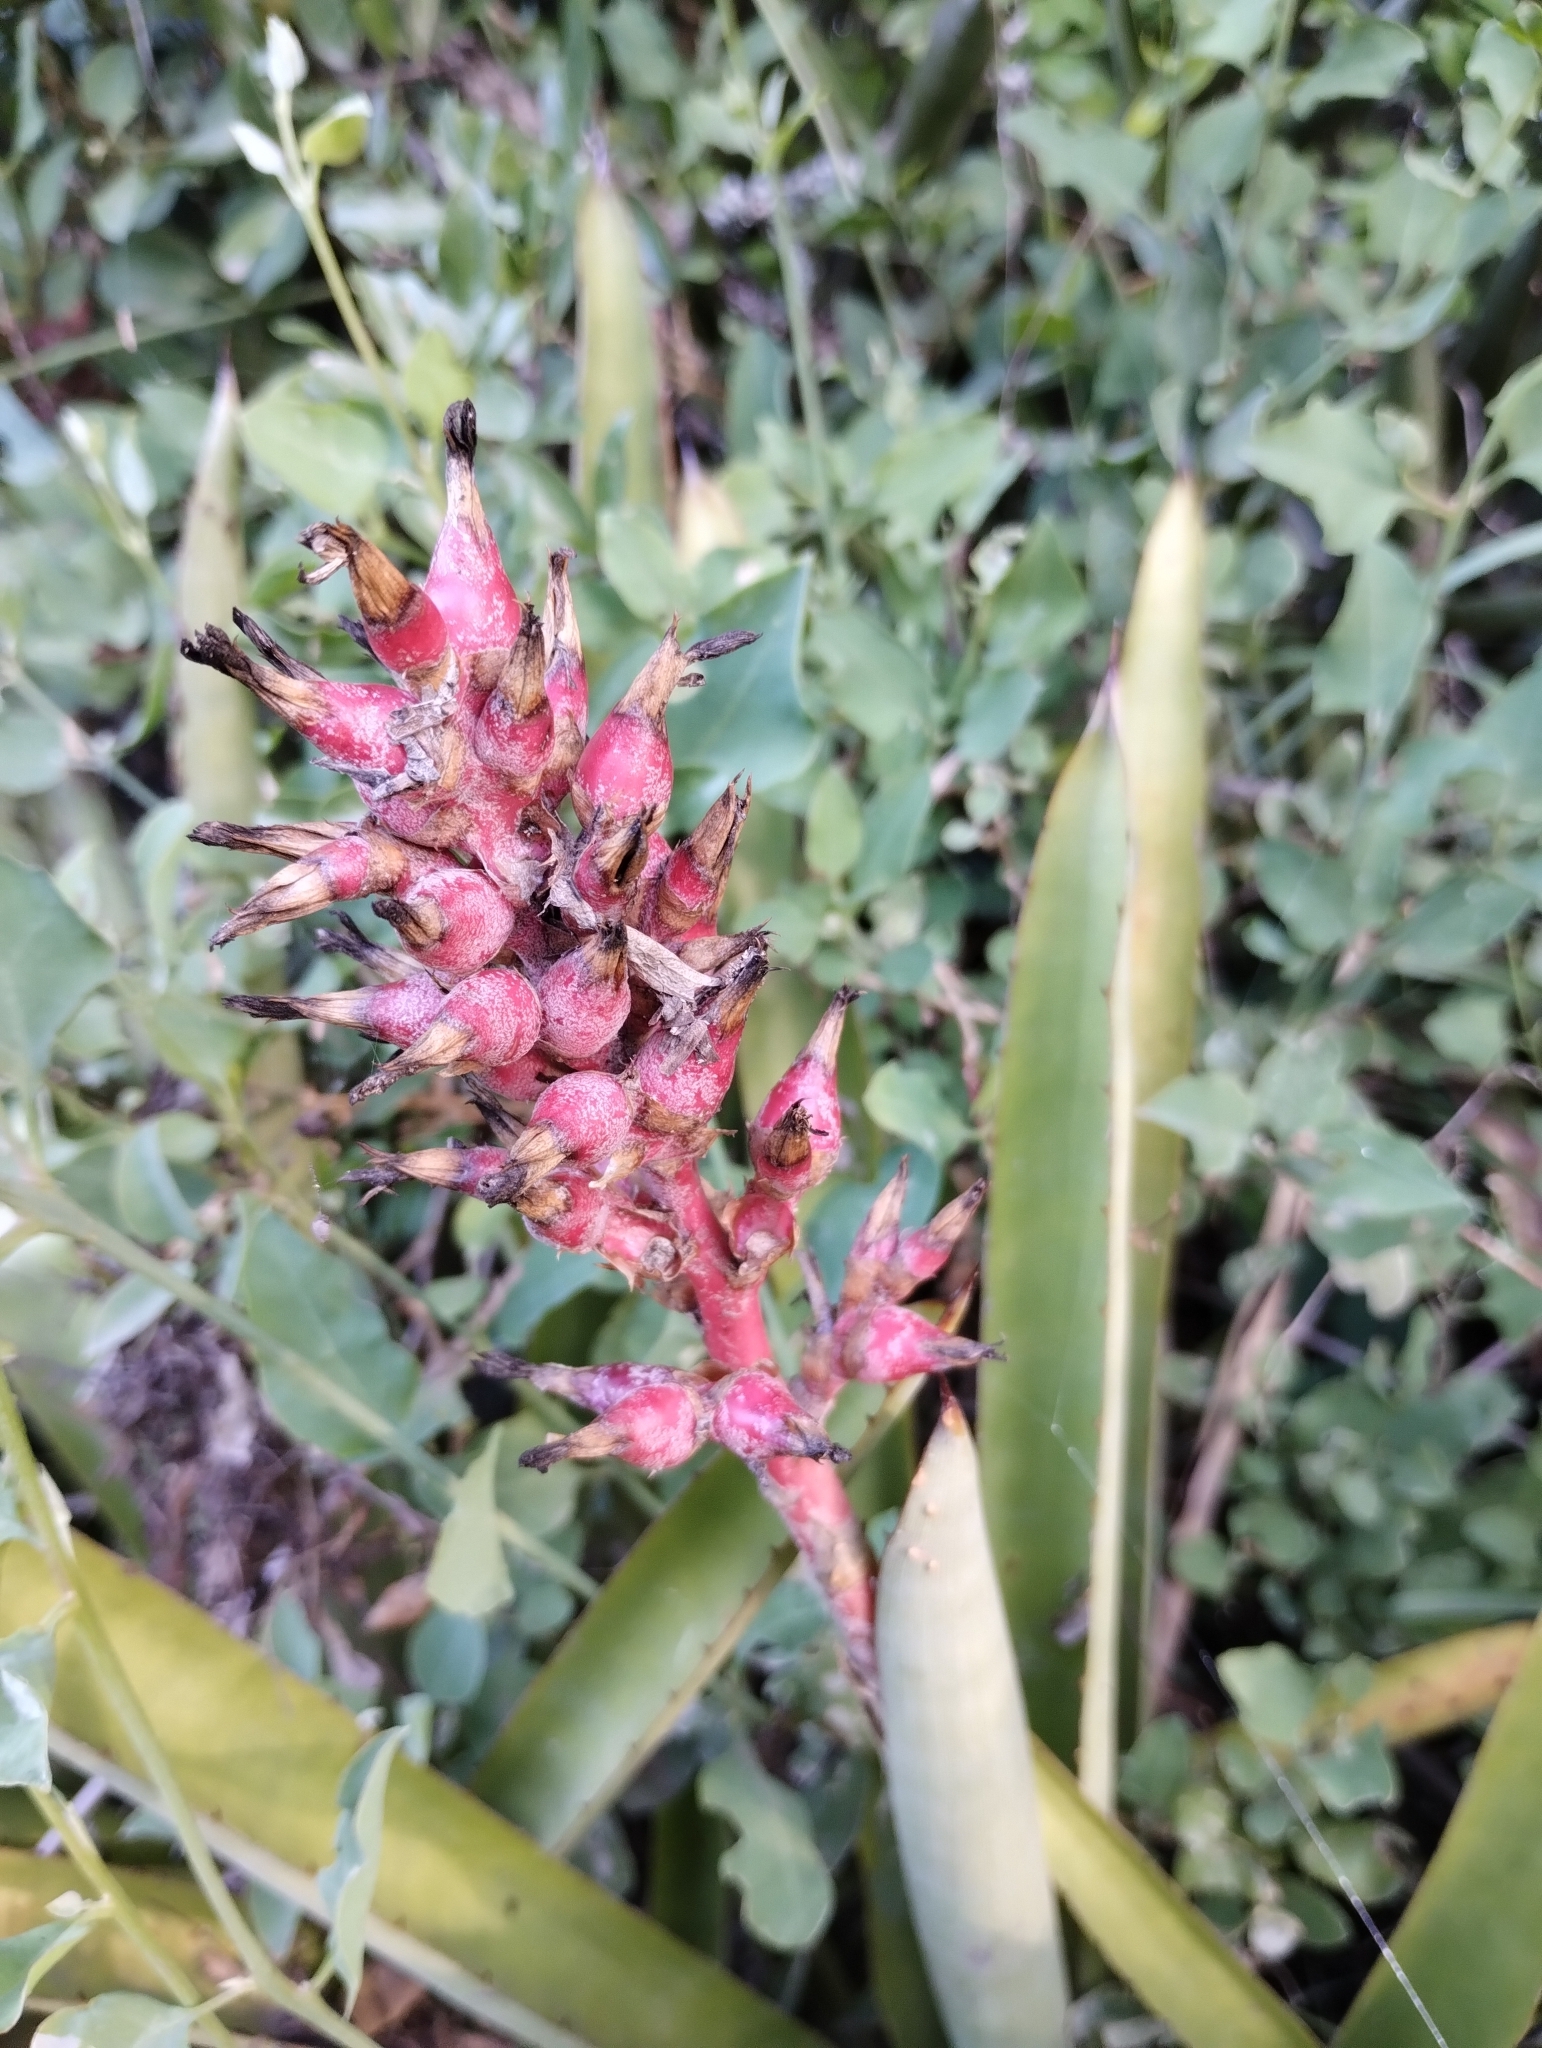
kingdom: Plantae
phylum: Tracheophyta
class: Liliopsida
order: Poales
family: Bromeliaceae
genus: Aechmea
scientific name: Aechmea distichantha
